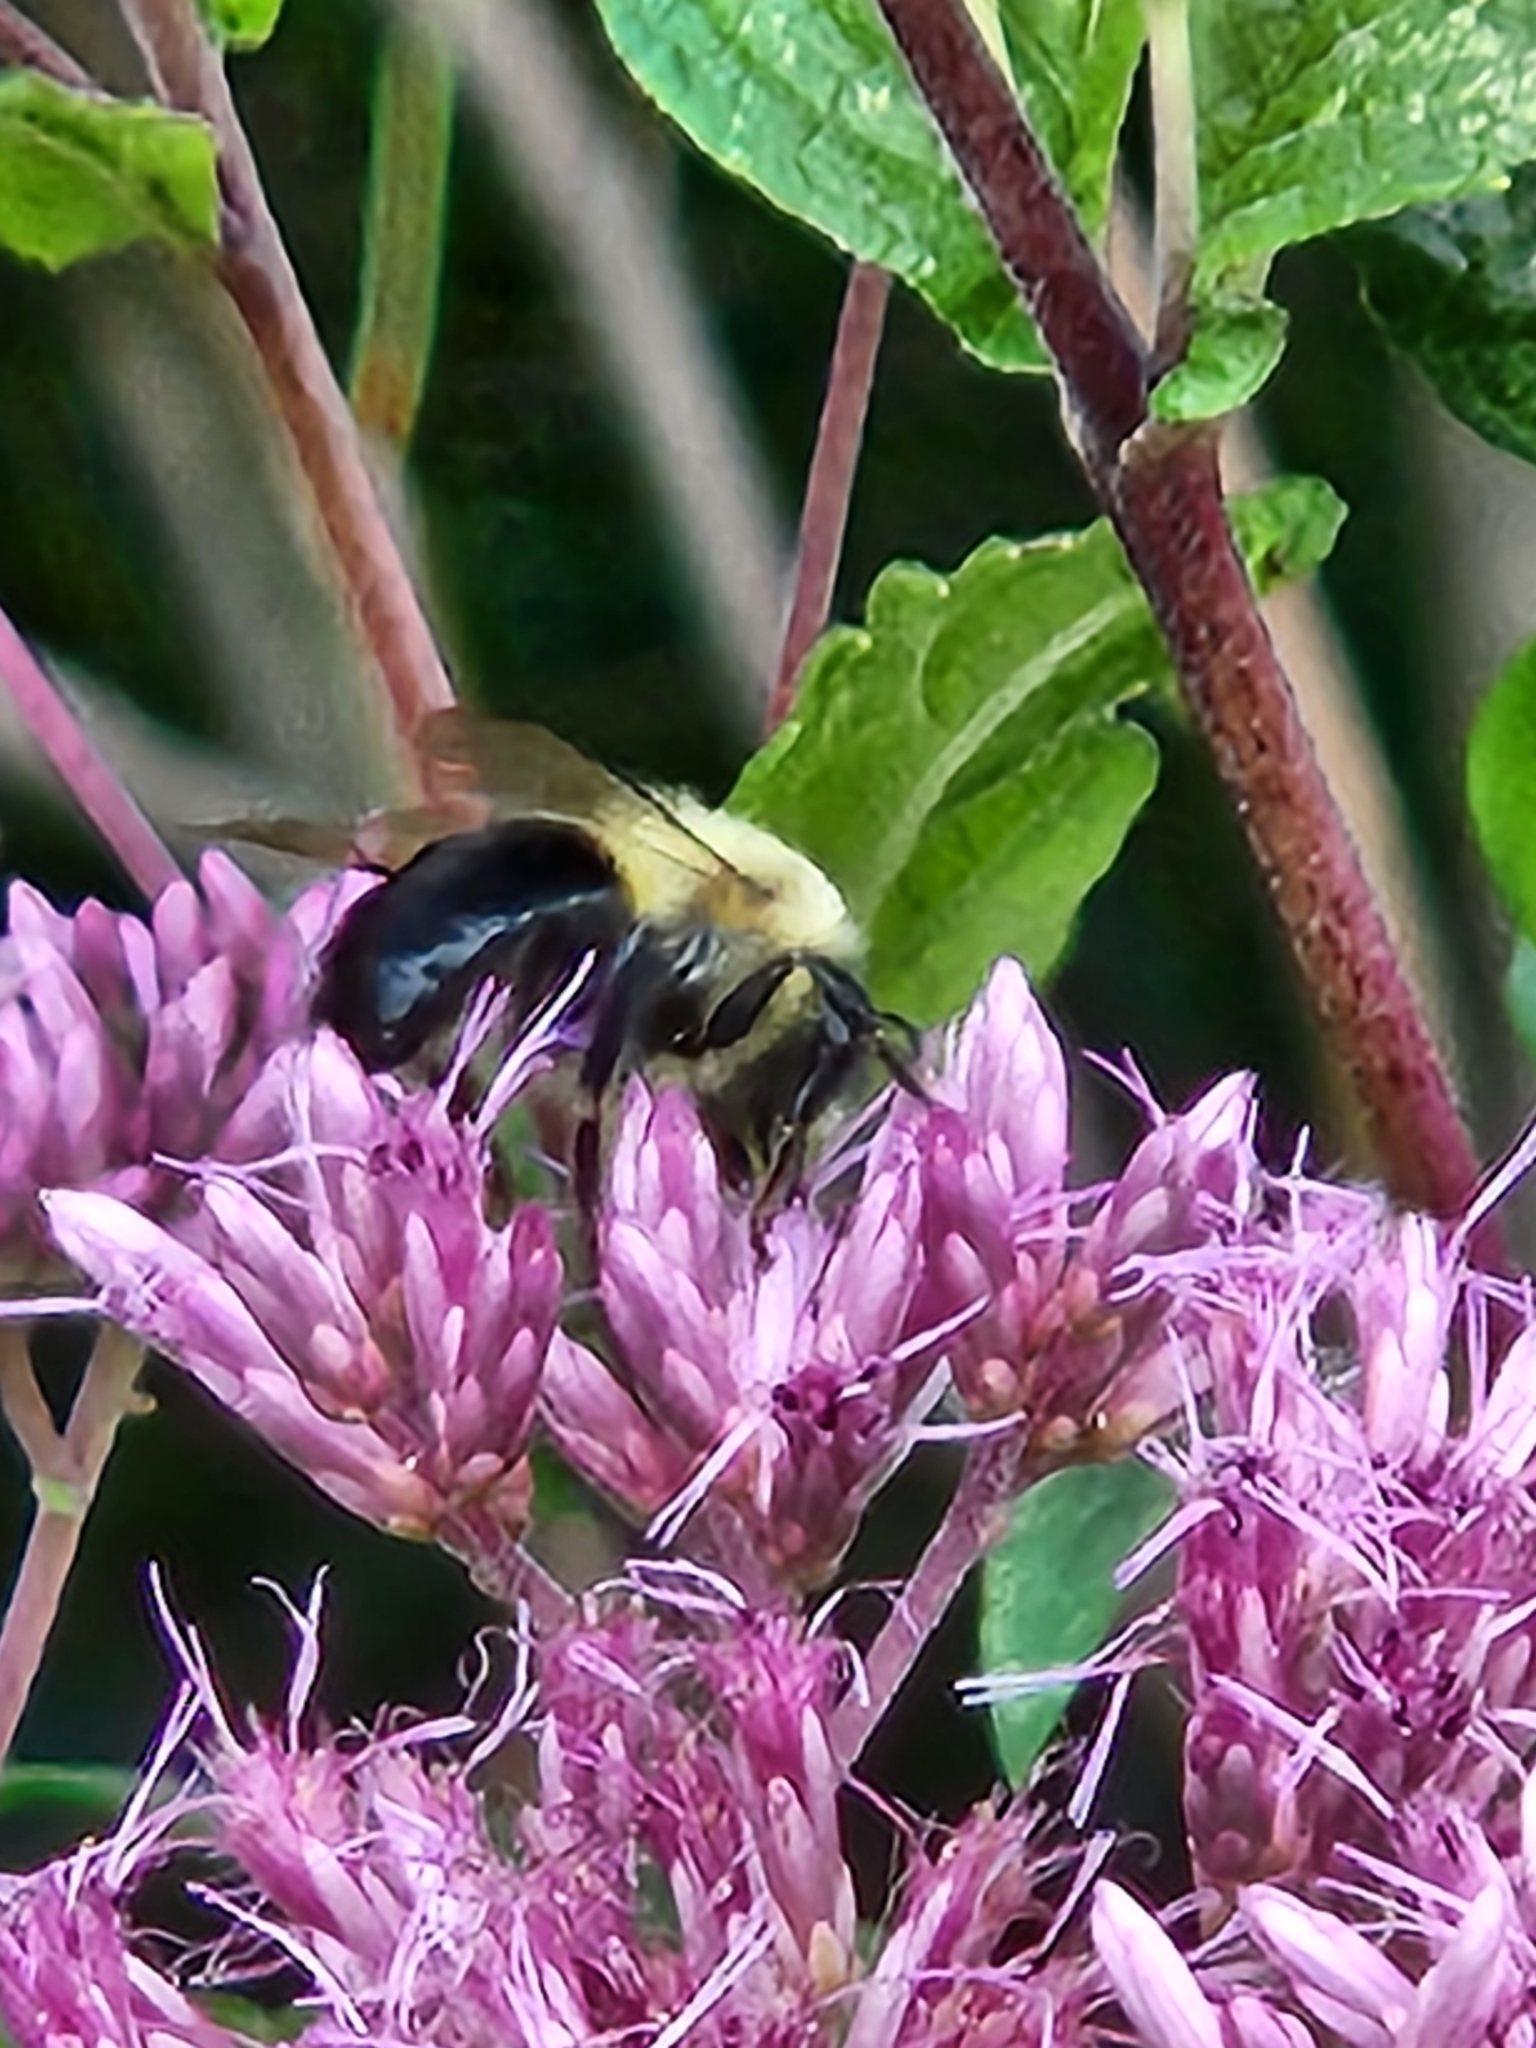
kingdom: Animalia
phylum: Arthropoda
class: Insecta
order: Hymenoptera
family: Apidae
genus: Bombus
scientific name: Bombus impatiens
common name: Common eastern bumble bee
